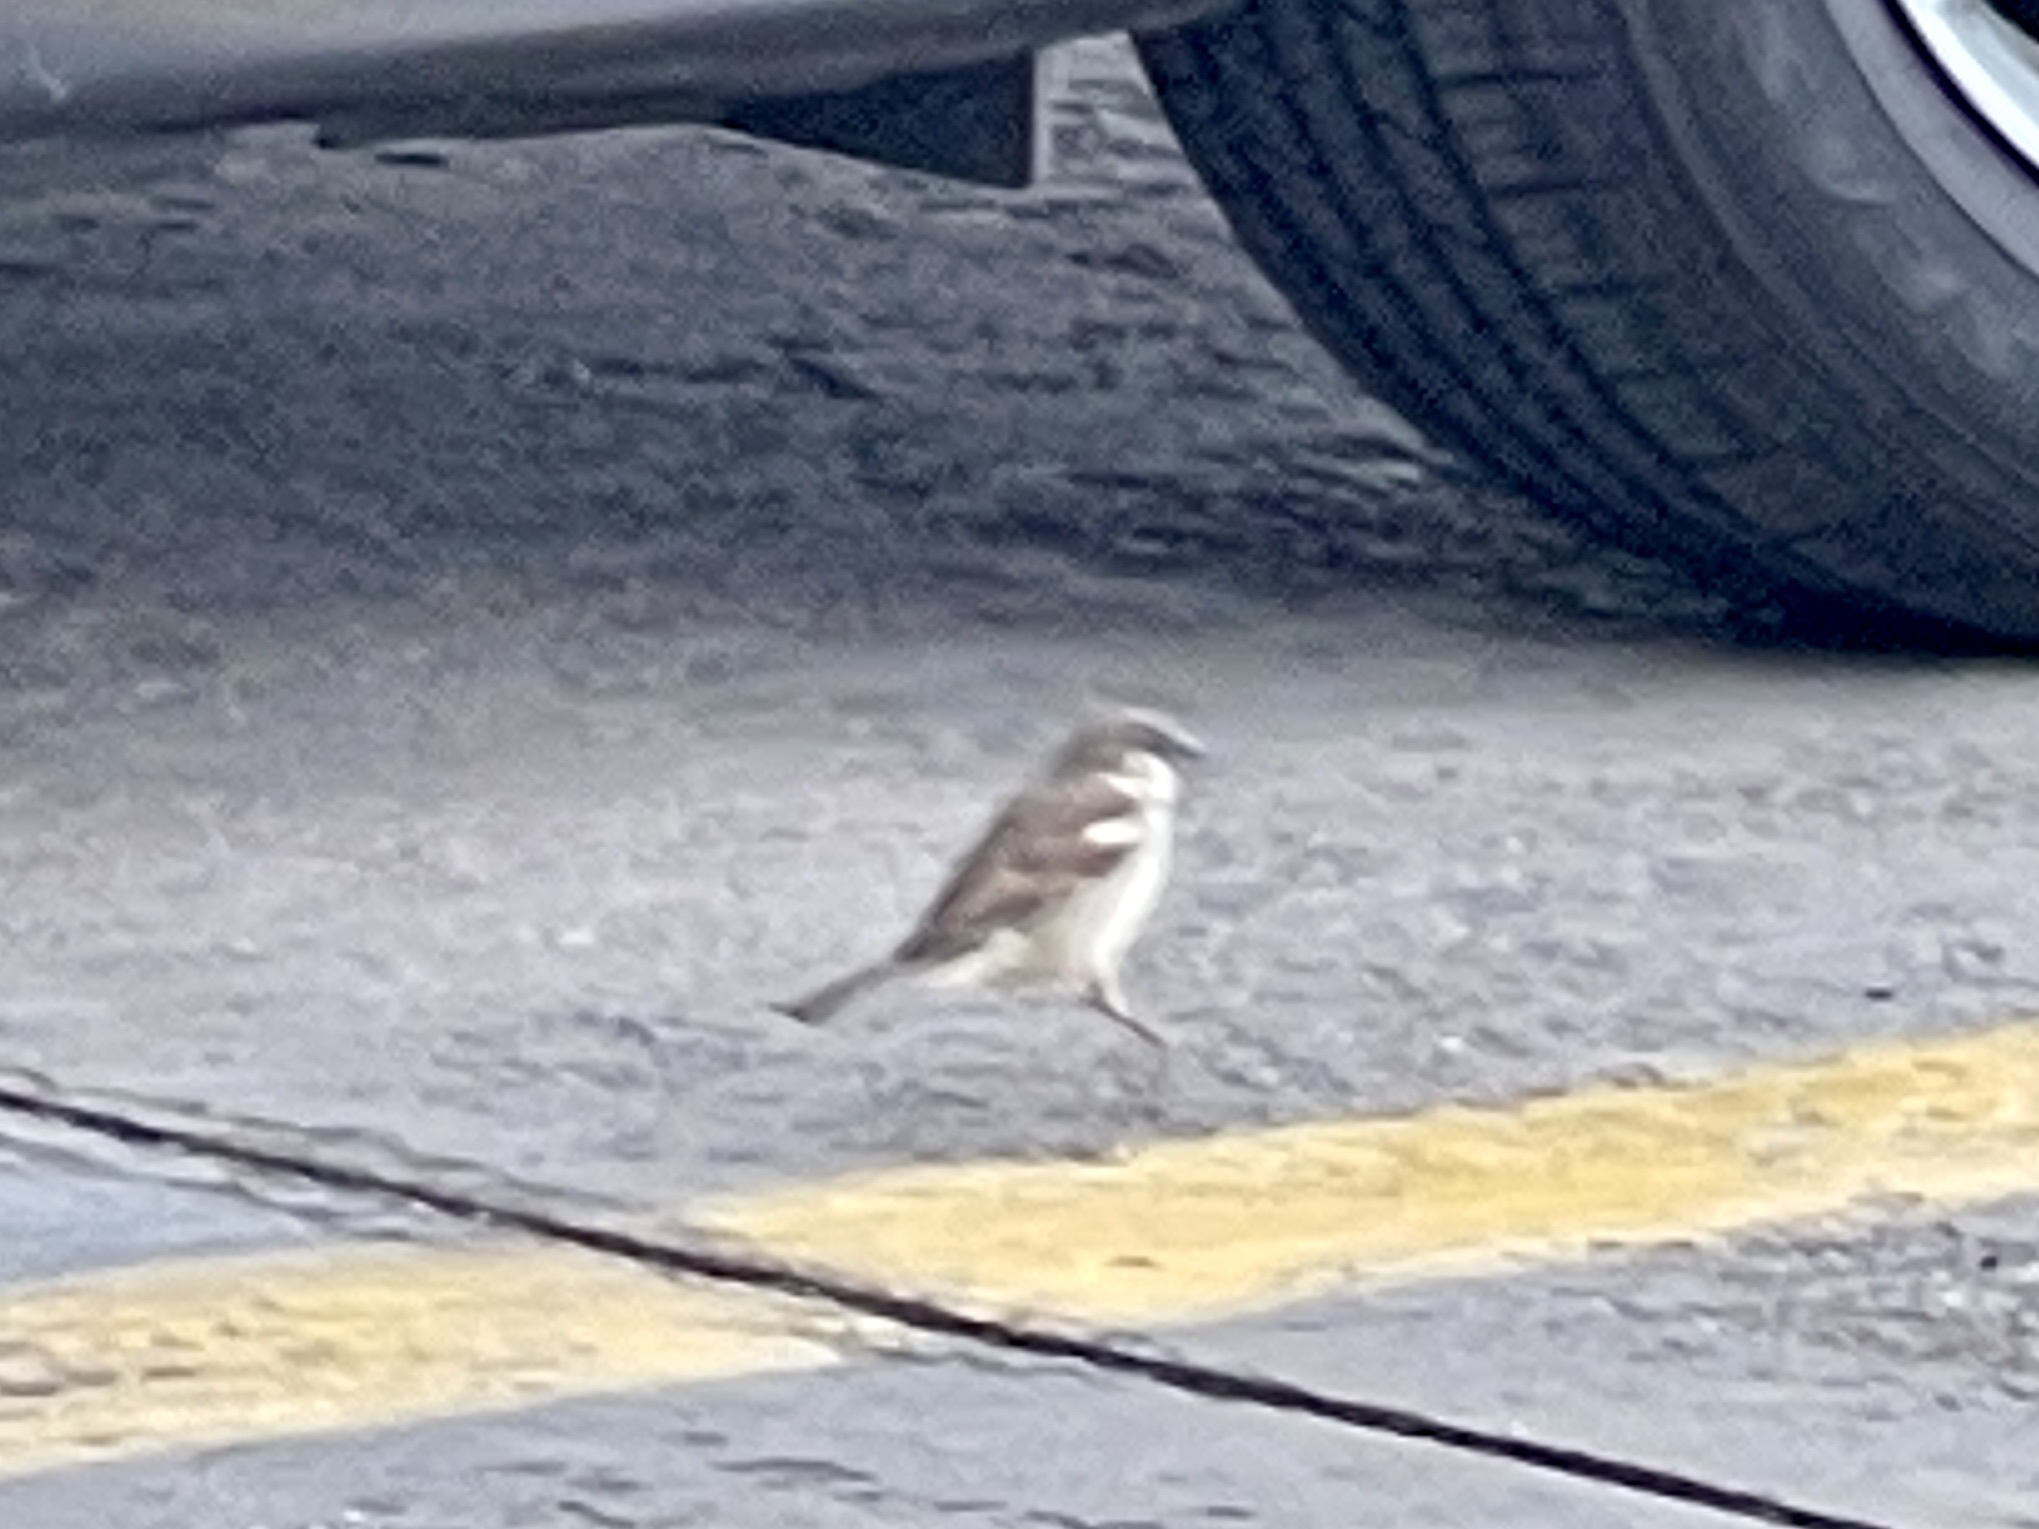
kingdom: Animalia
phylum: Chordata
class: Aves
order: Passeriformes
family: Passeridae
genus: Passer
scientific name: Passer domesticus
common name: House sparrow
